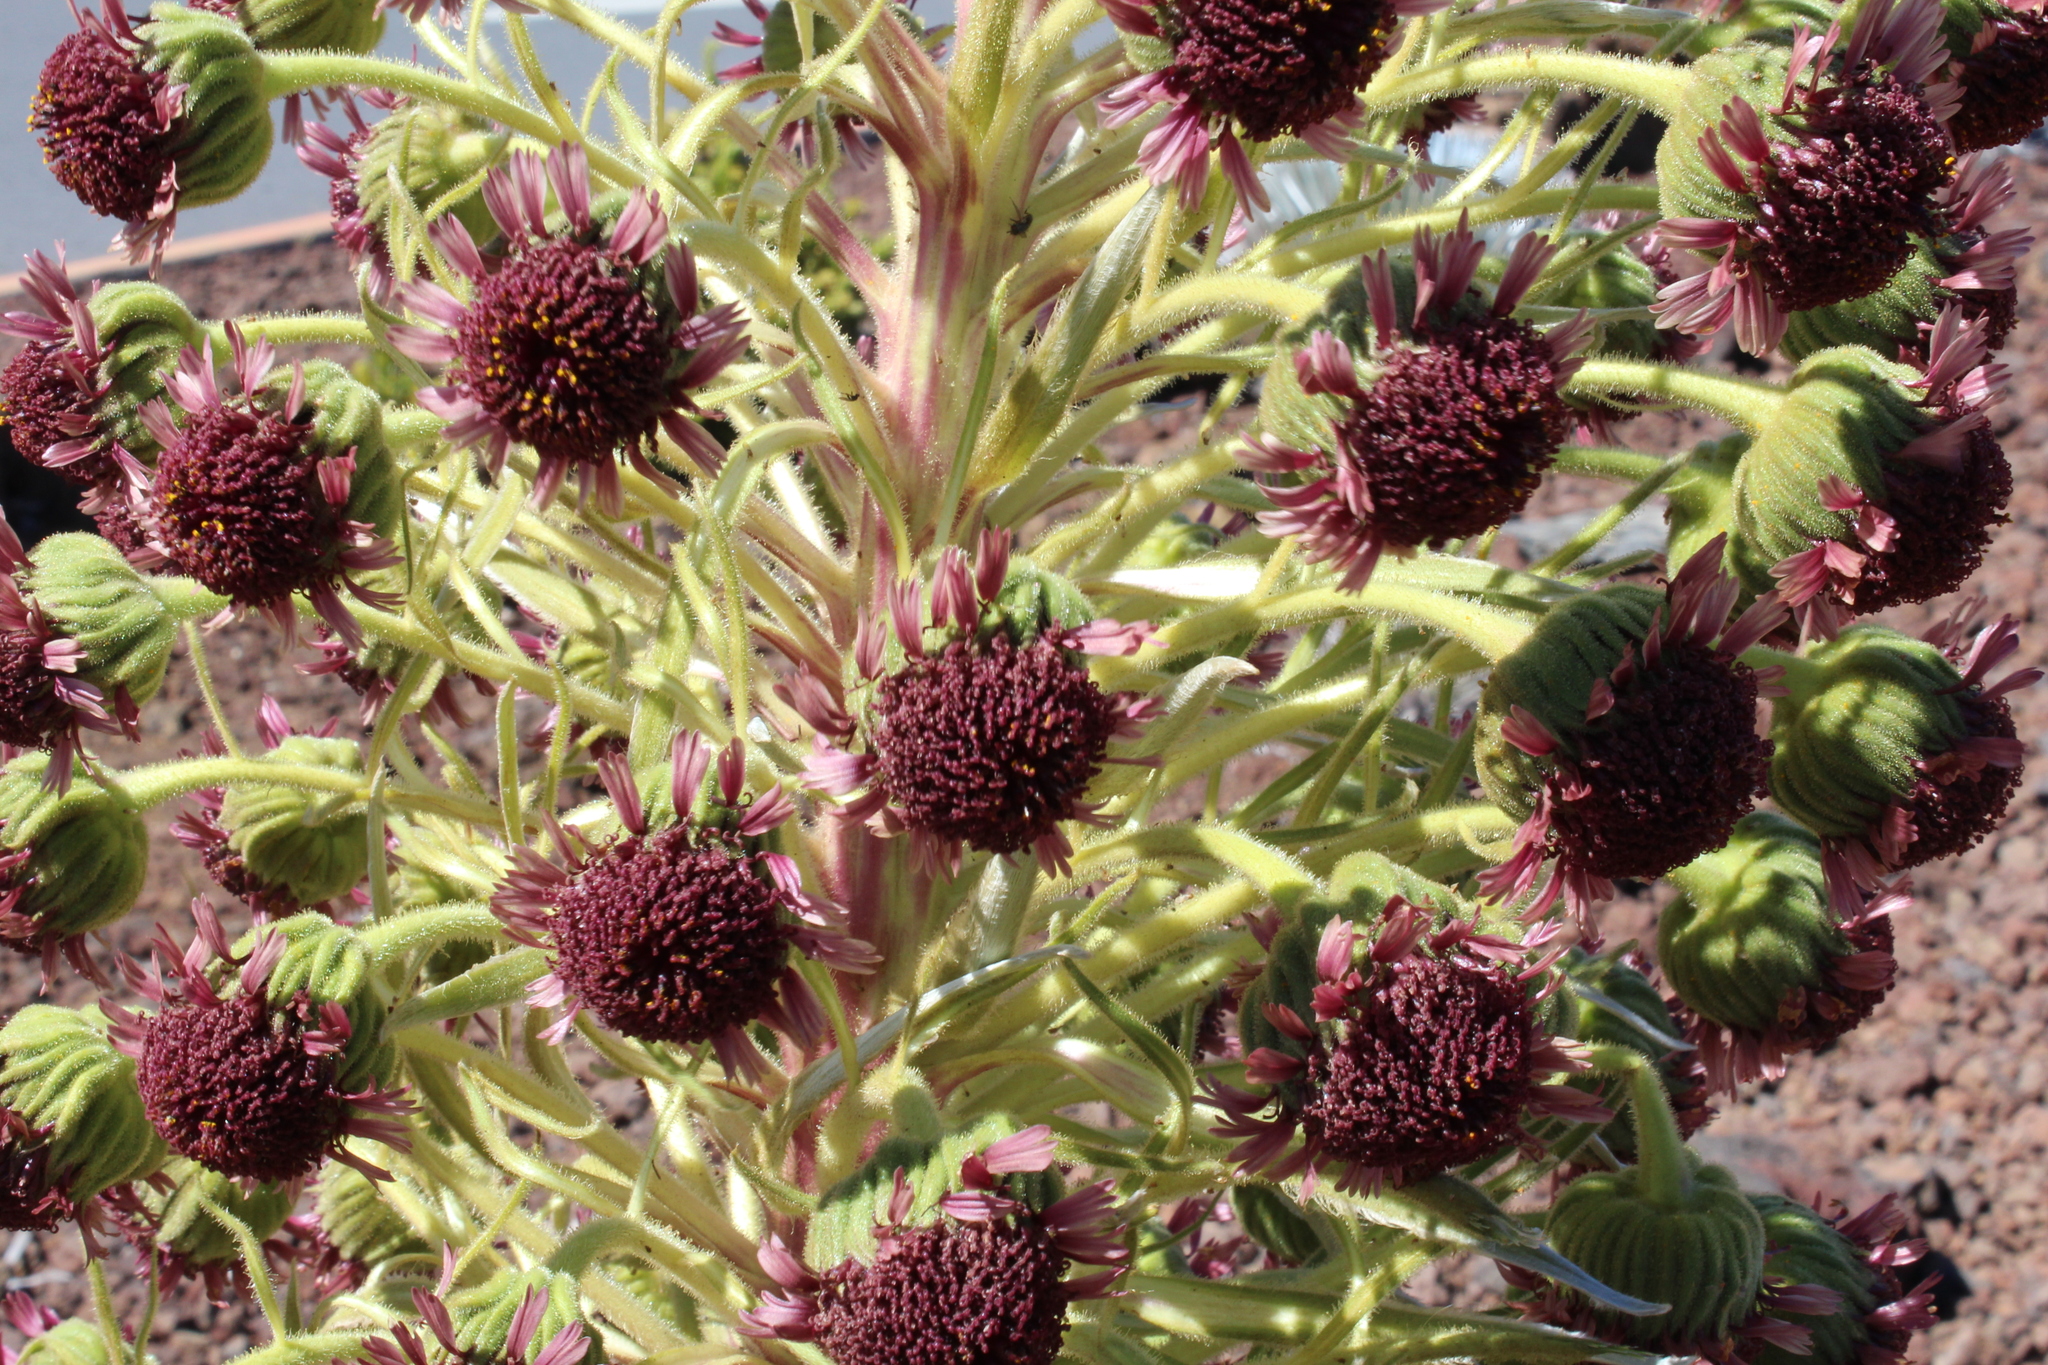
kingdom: Plantae
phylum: Tracheophyta
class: Magnoliopsida
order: Asterales
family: Asteraceae
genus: Argyroxiphium
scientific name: Argyroxiphium sandwicense
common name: Silversword
